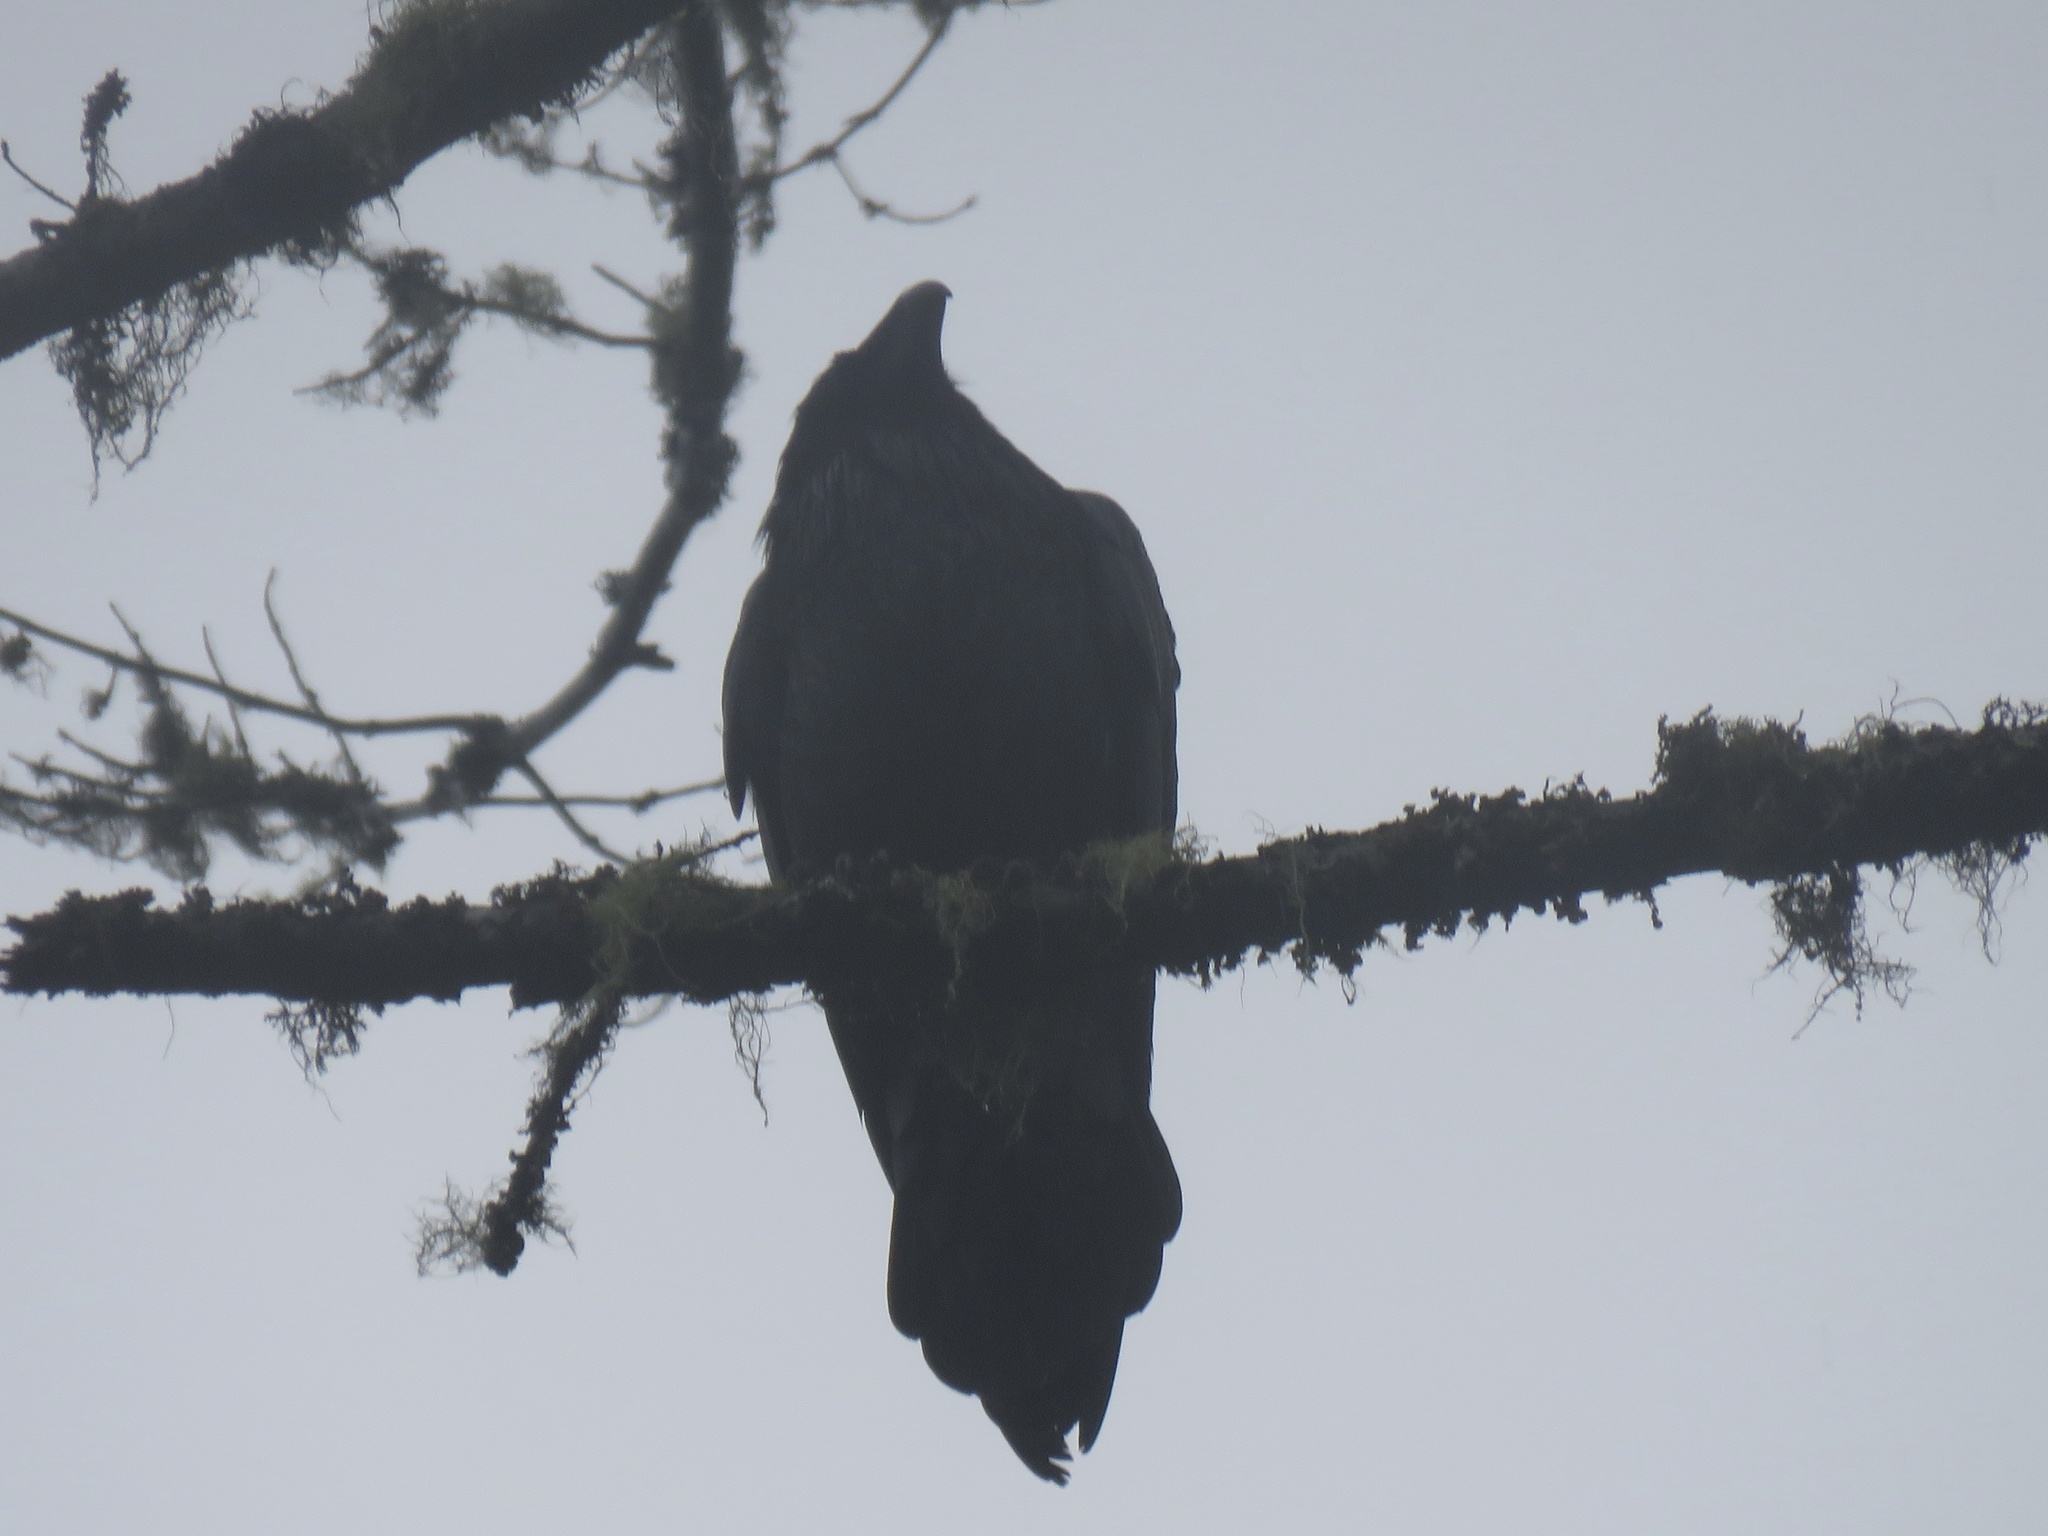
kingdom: Animalia
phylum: Chordata
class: Aves
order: Passeriformes
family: Corvidae
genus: Corvus
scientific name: Corvus corax
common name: Common raven
